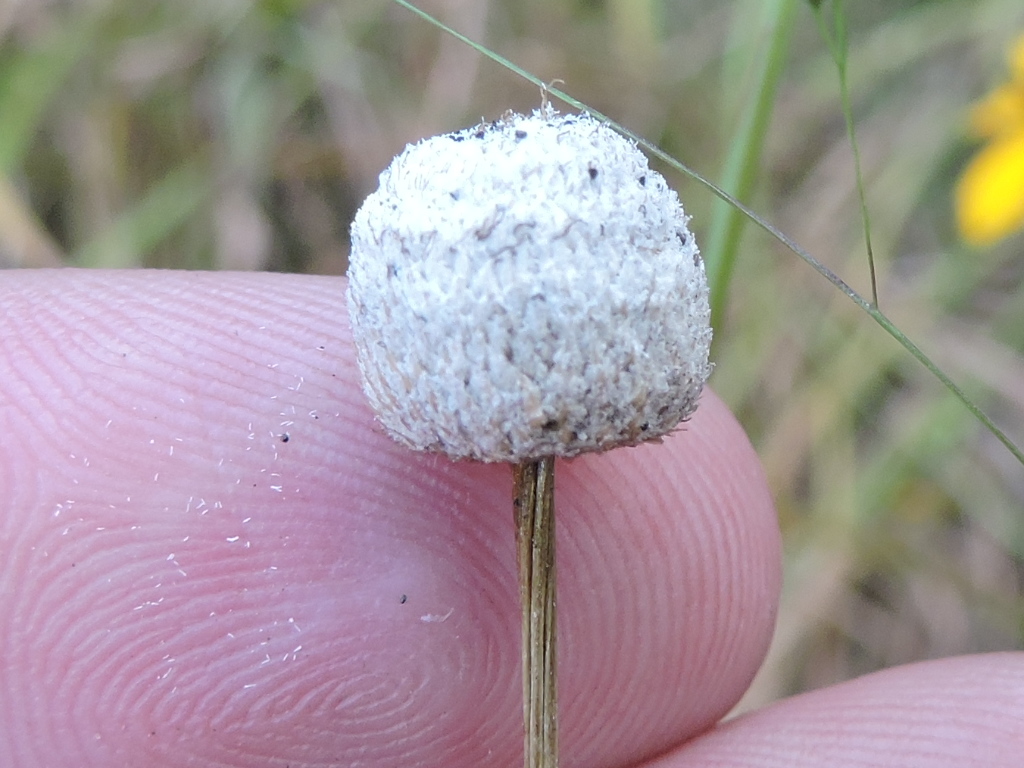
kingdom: Plantae
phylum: Tracheophyta
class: Liliopsida
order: Poales
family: Eriocaulaceae
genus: Eriocaulon
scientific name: Eriocaulon decangulare
